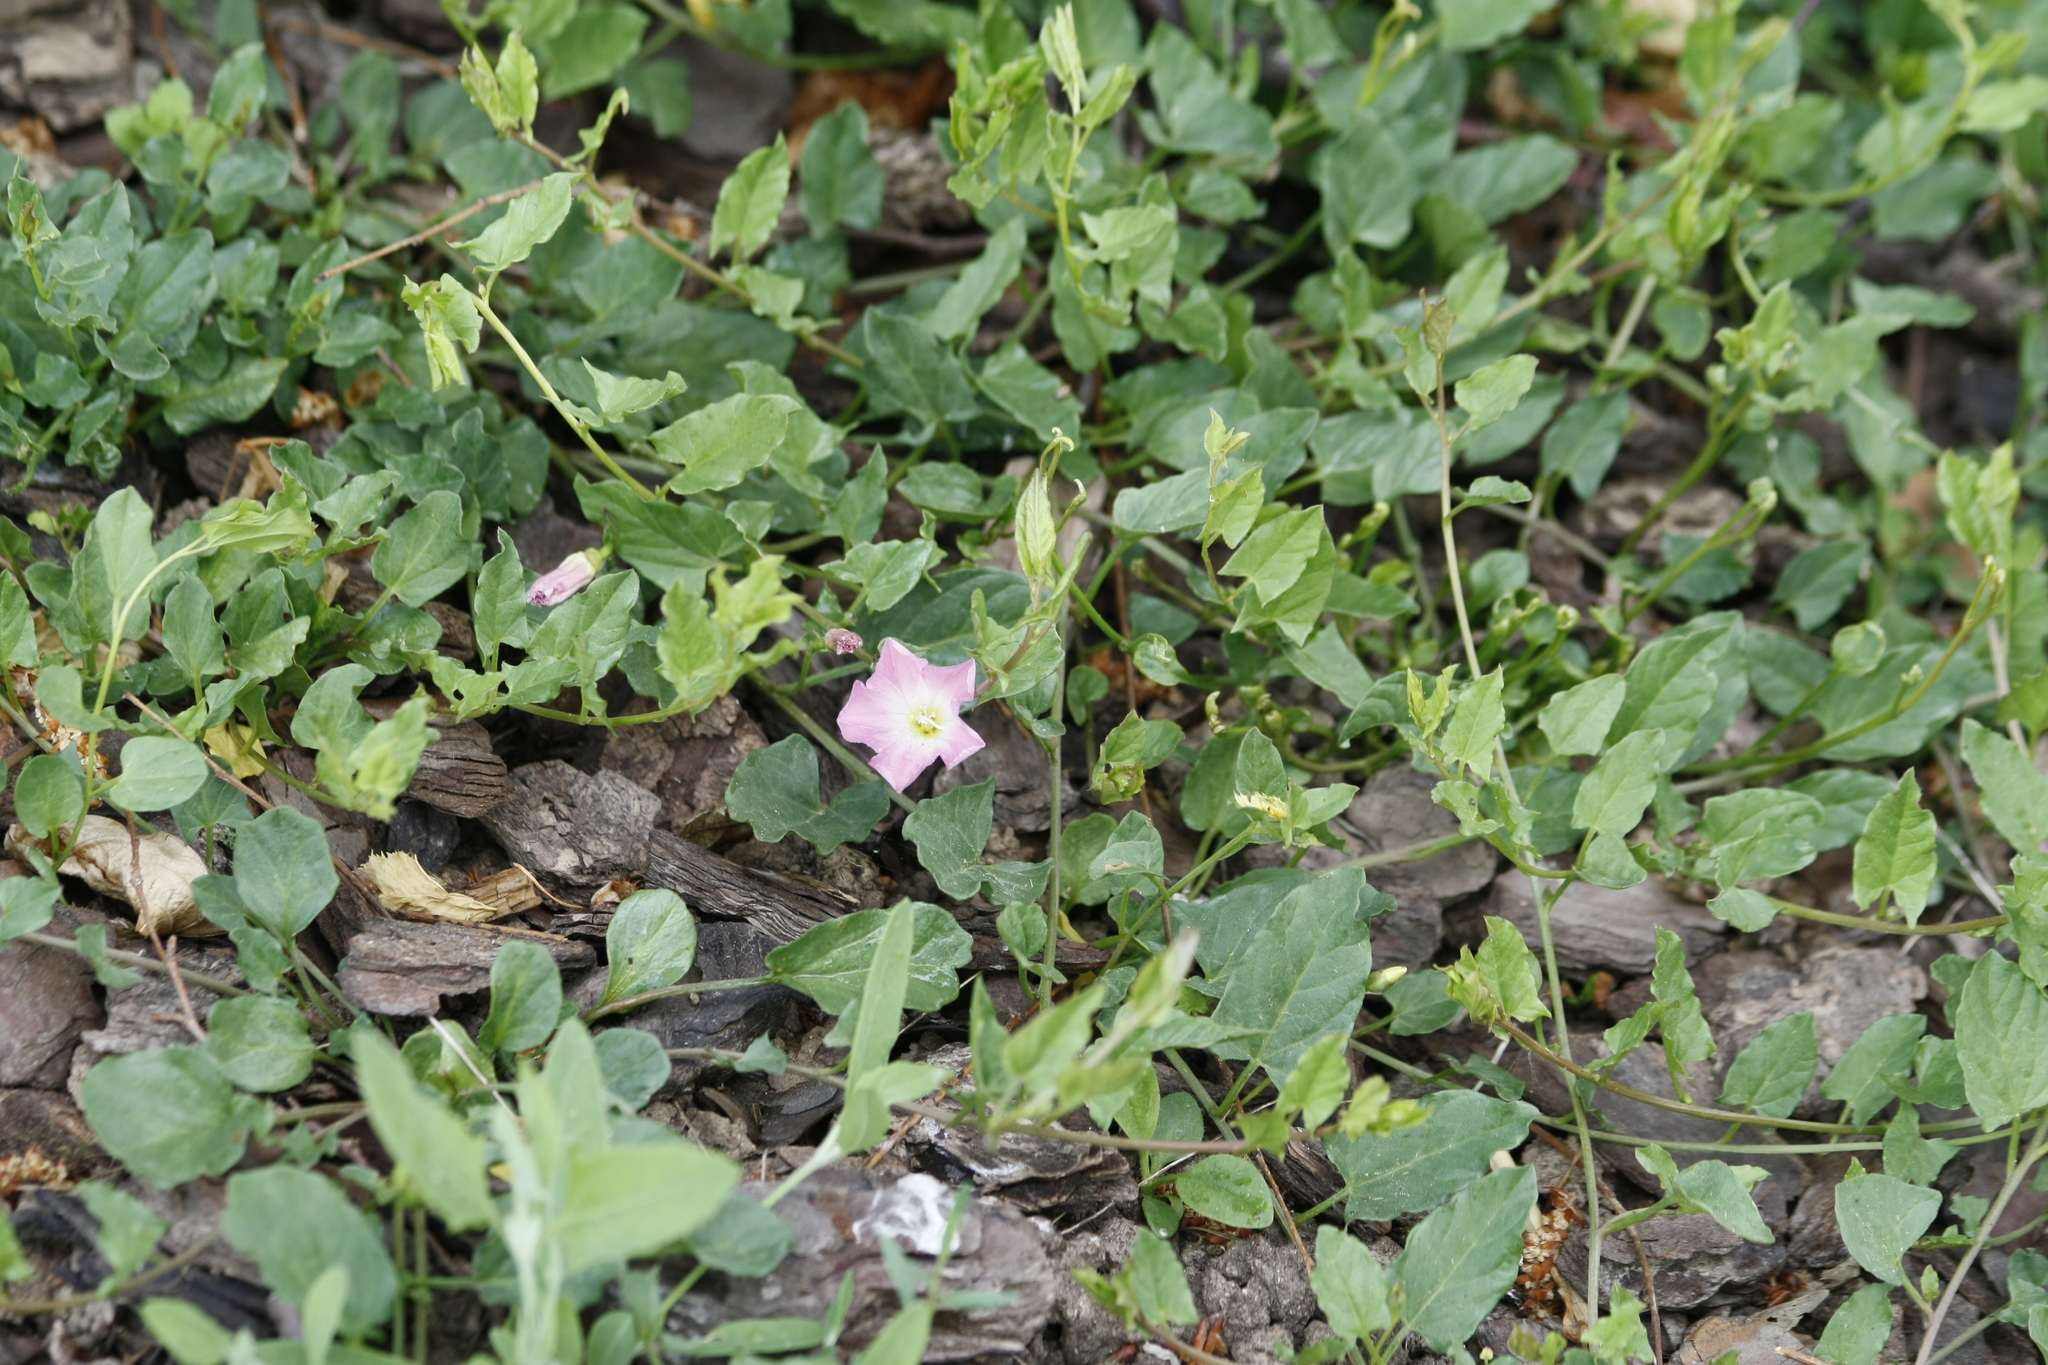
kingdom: Plantae
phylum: Tracheophyta
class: Magnoliopsida
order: Solanales
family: Convolvulaceae
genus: Convolvulus
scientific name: Convolvulus arvensis
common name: Field bindweed
